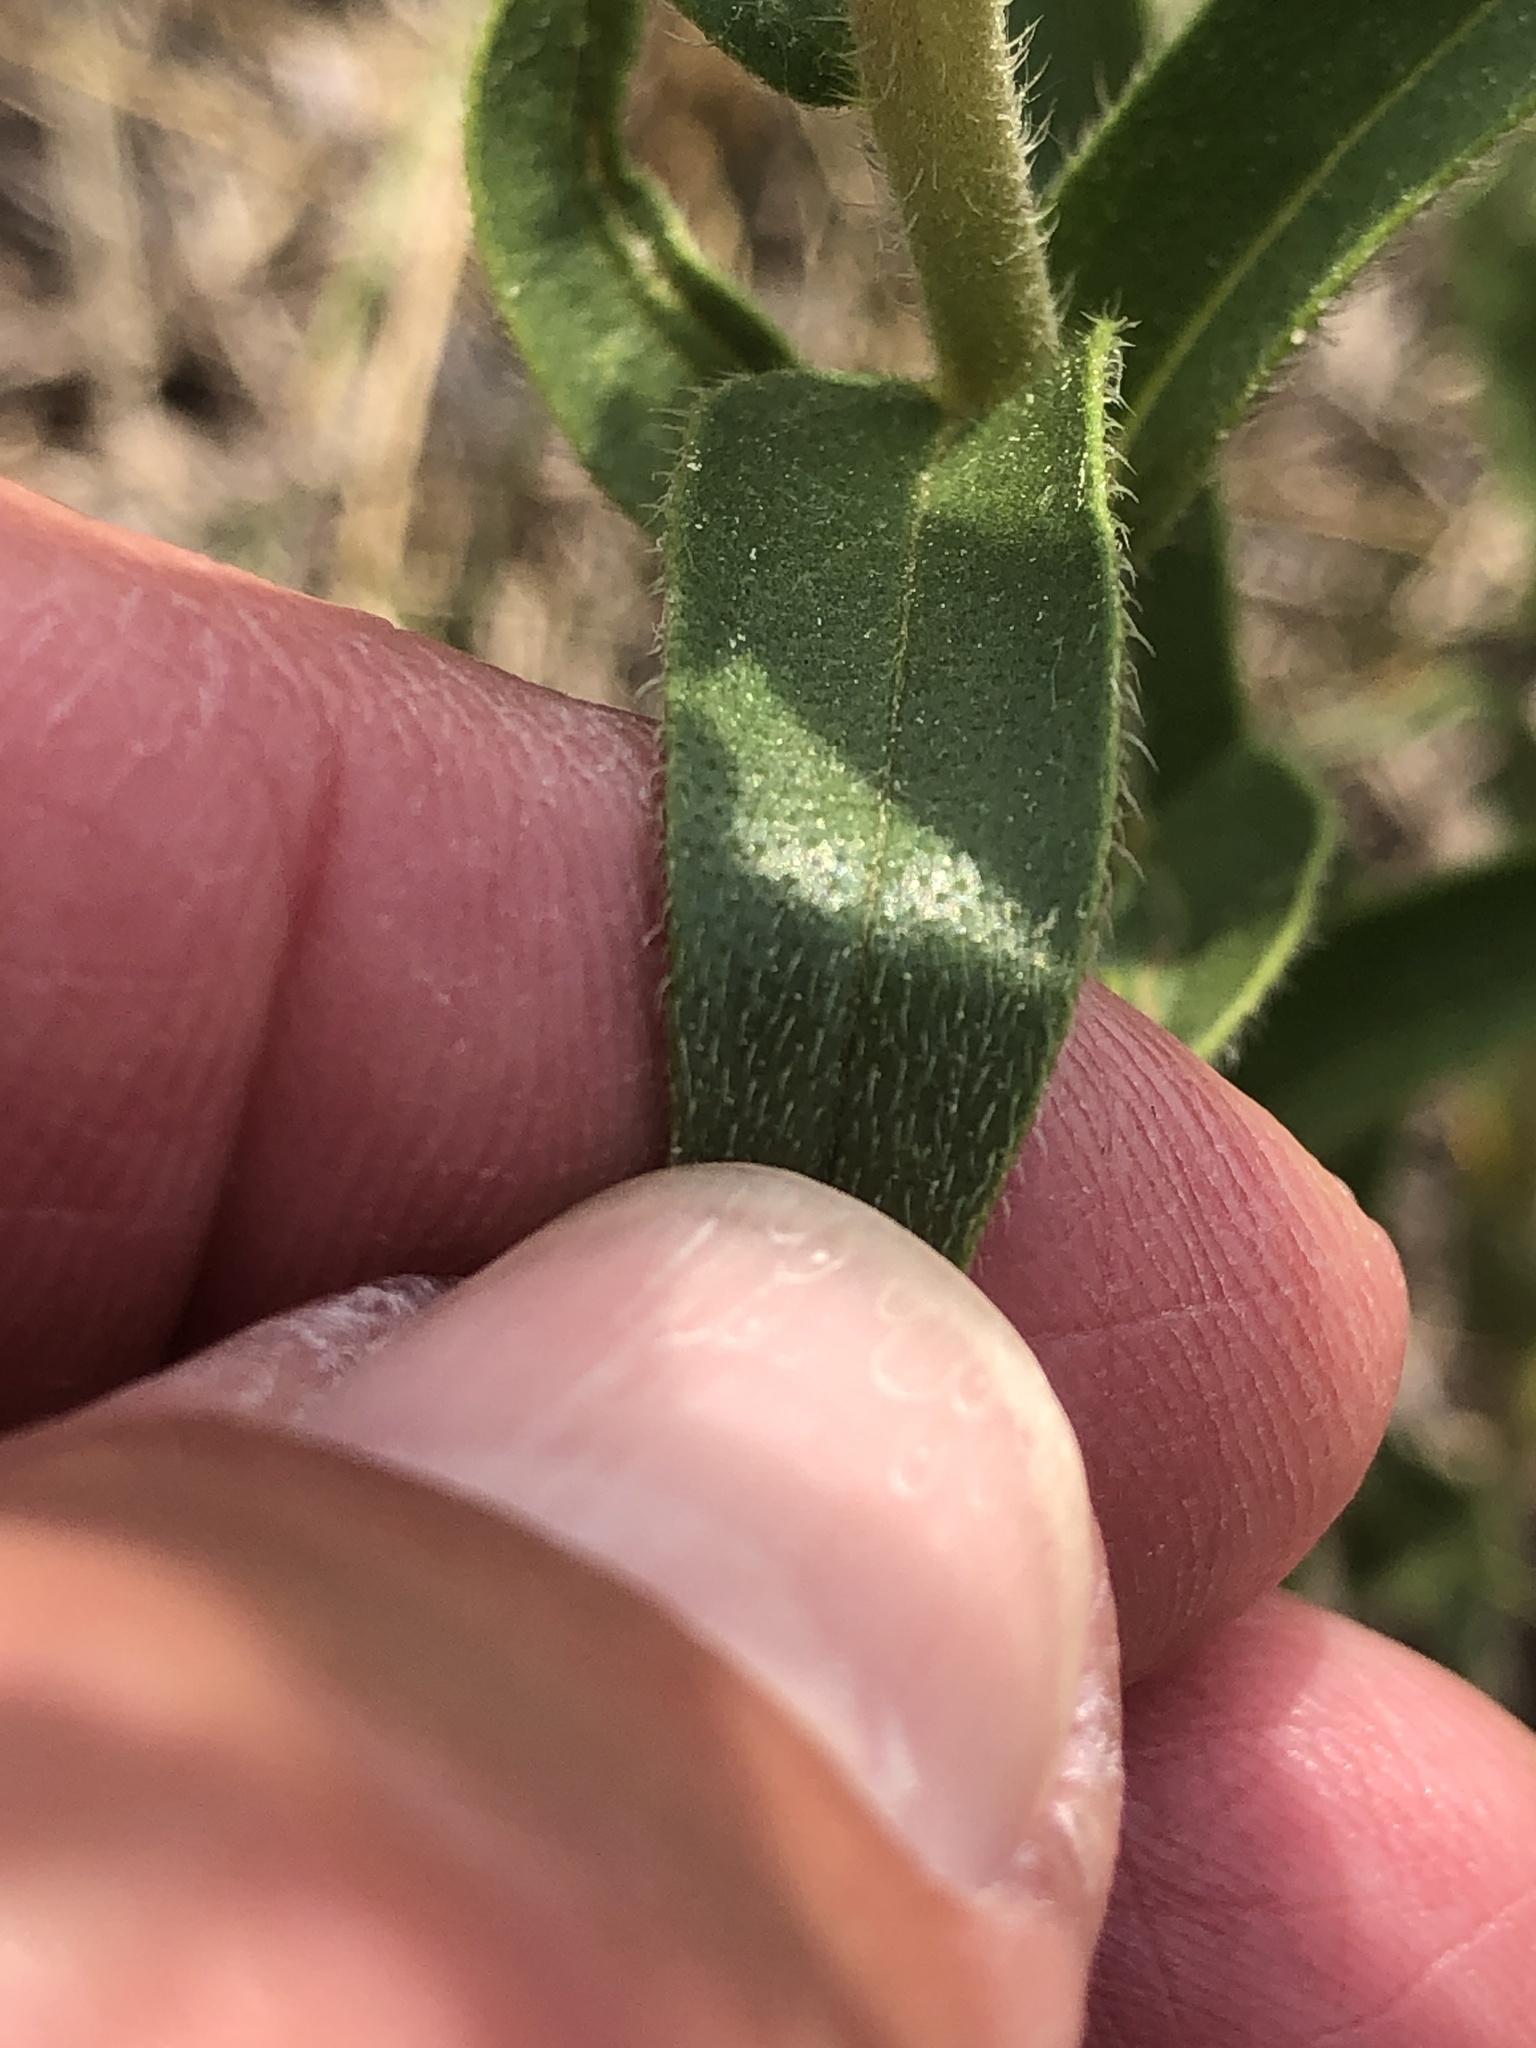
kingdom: Plantae
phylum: Tracheophyta
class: Magnoliopsida
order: Boraginales
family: Boraginaceae
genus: Lithospermum
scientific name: Lithospermum caroliniense
